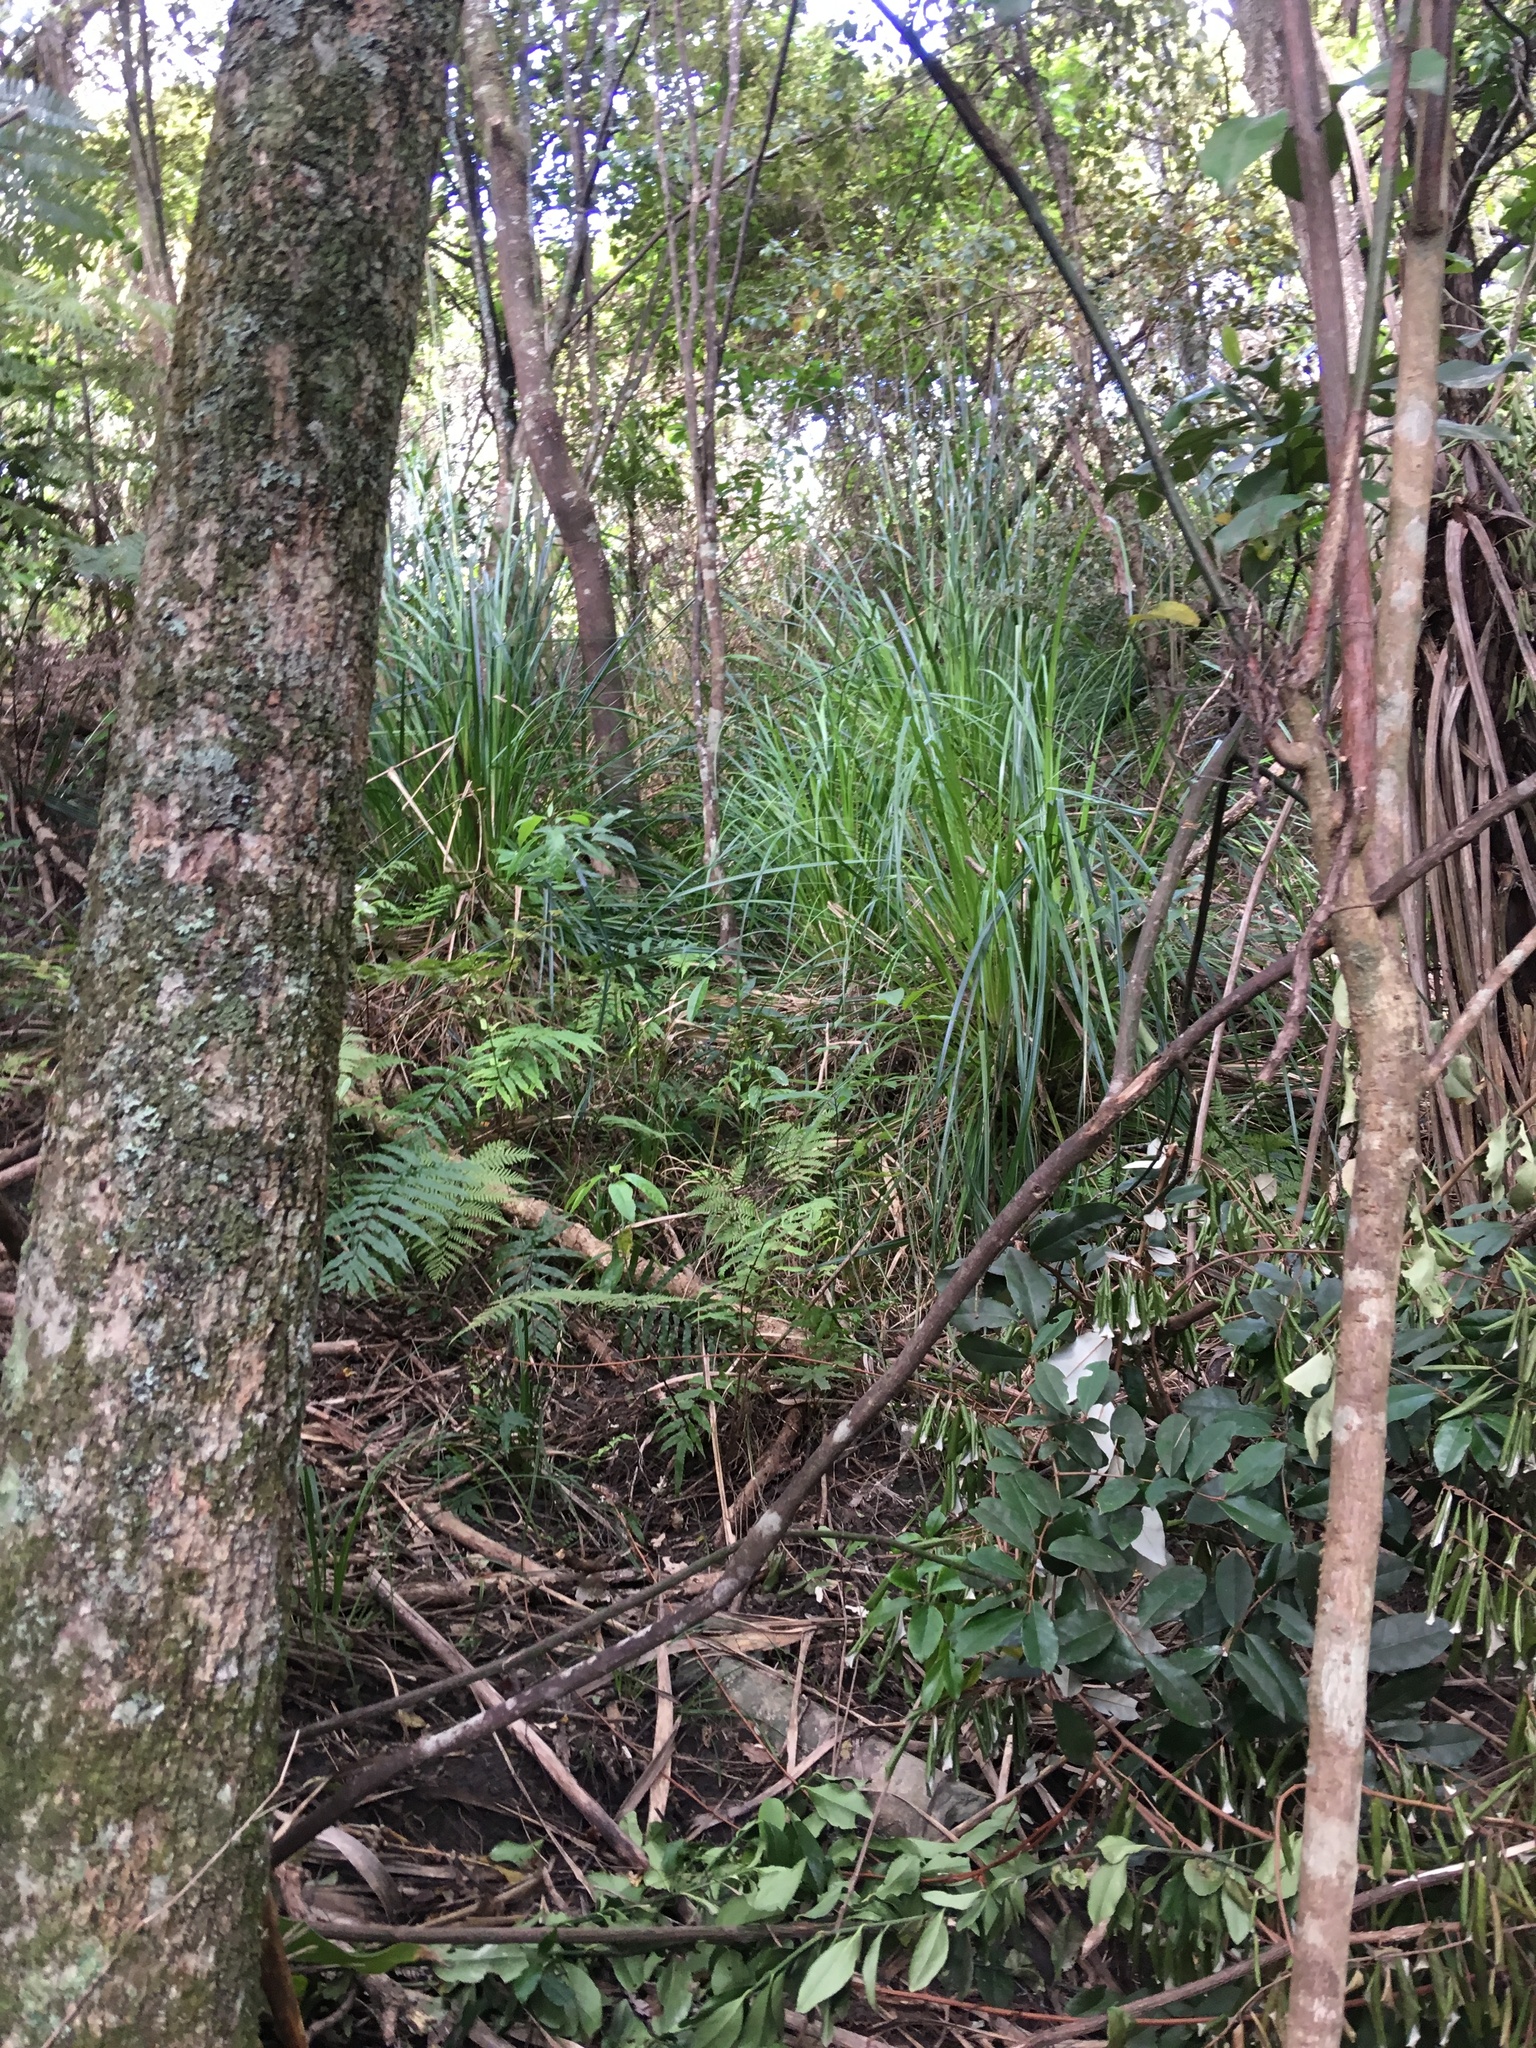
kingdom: Plantae
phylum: Tracheophyta
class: Liliopsida
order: Poales
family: Cyperaceae
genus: Gahnia
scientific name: Gahnia xanthocarpa
